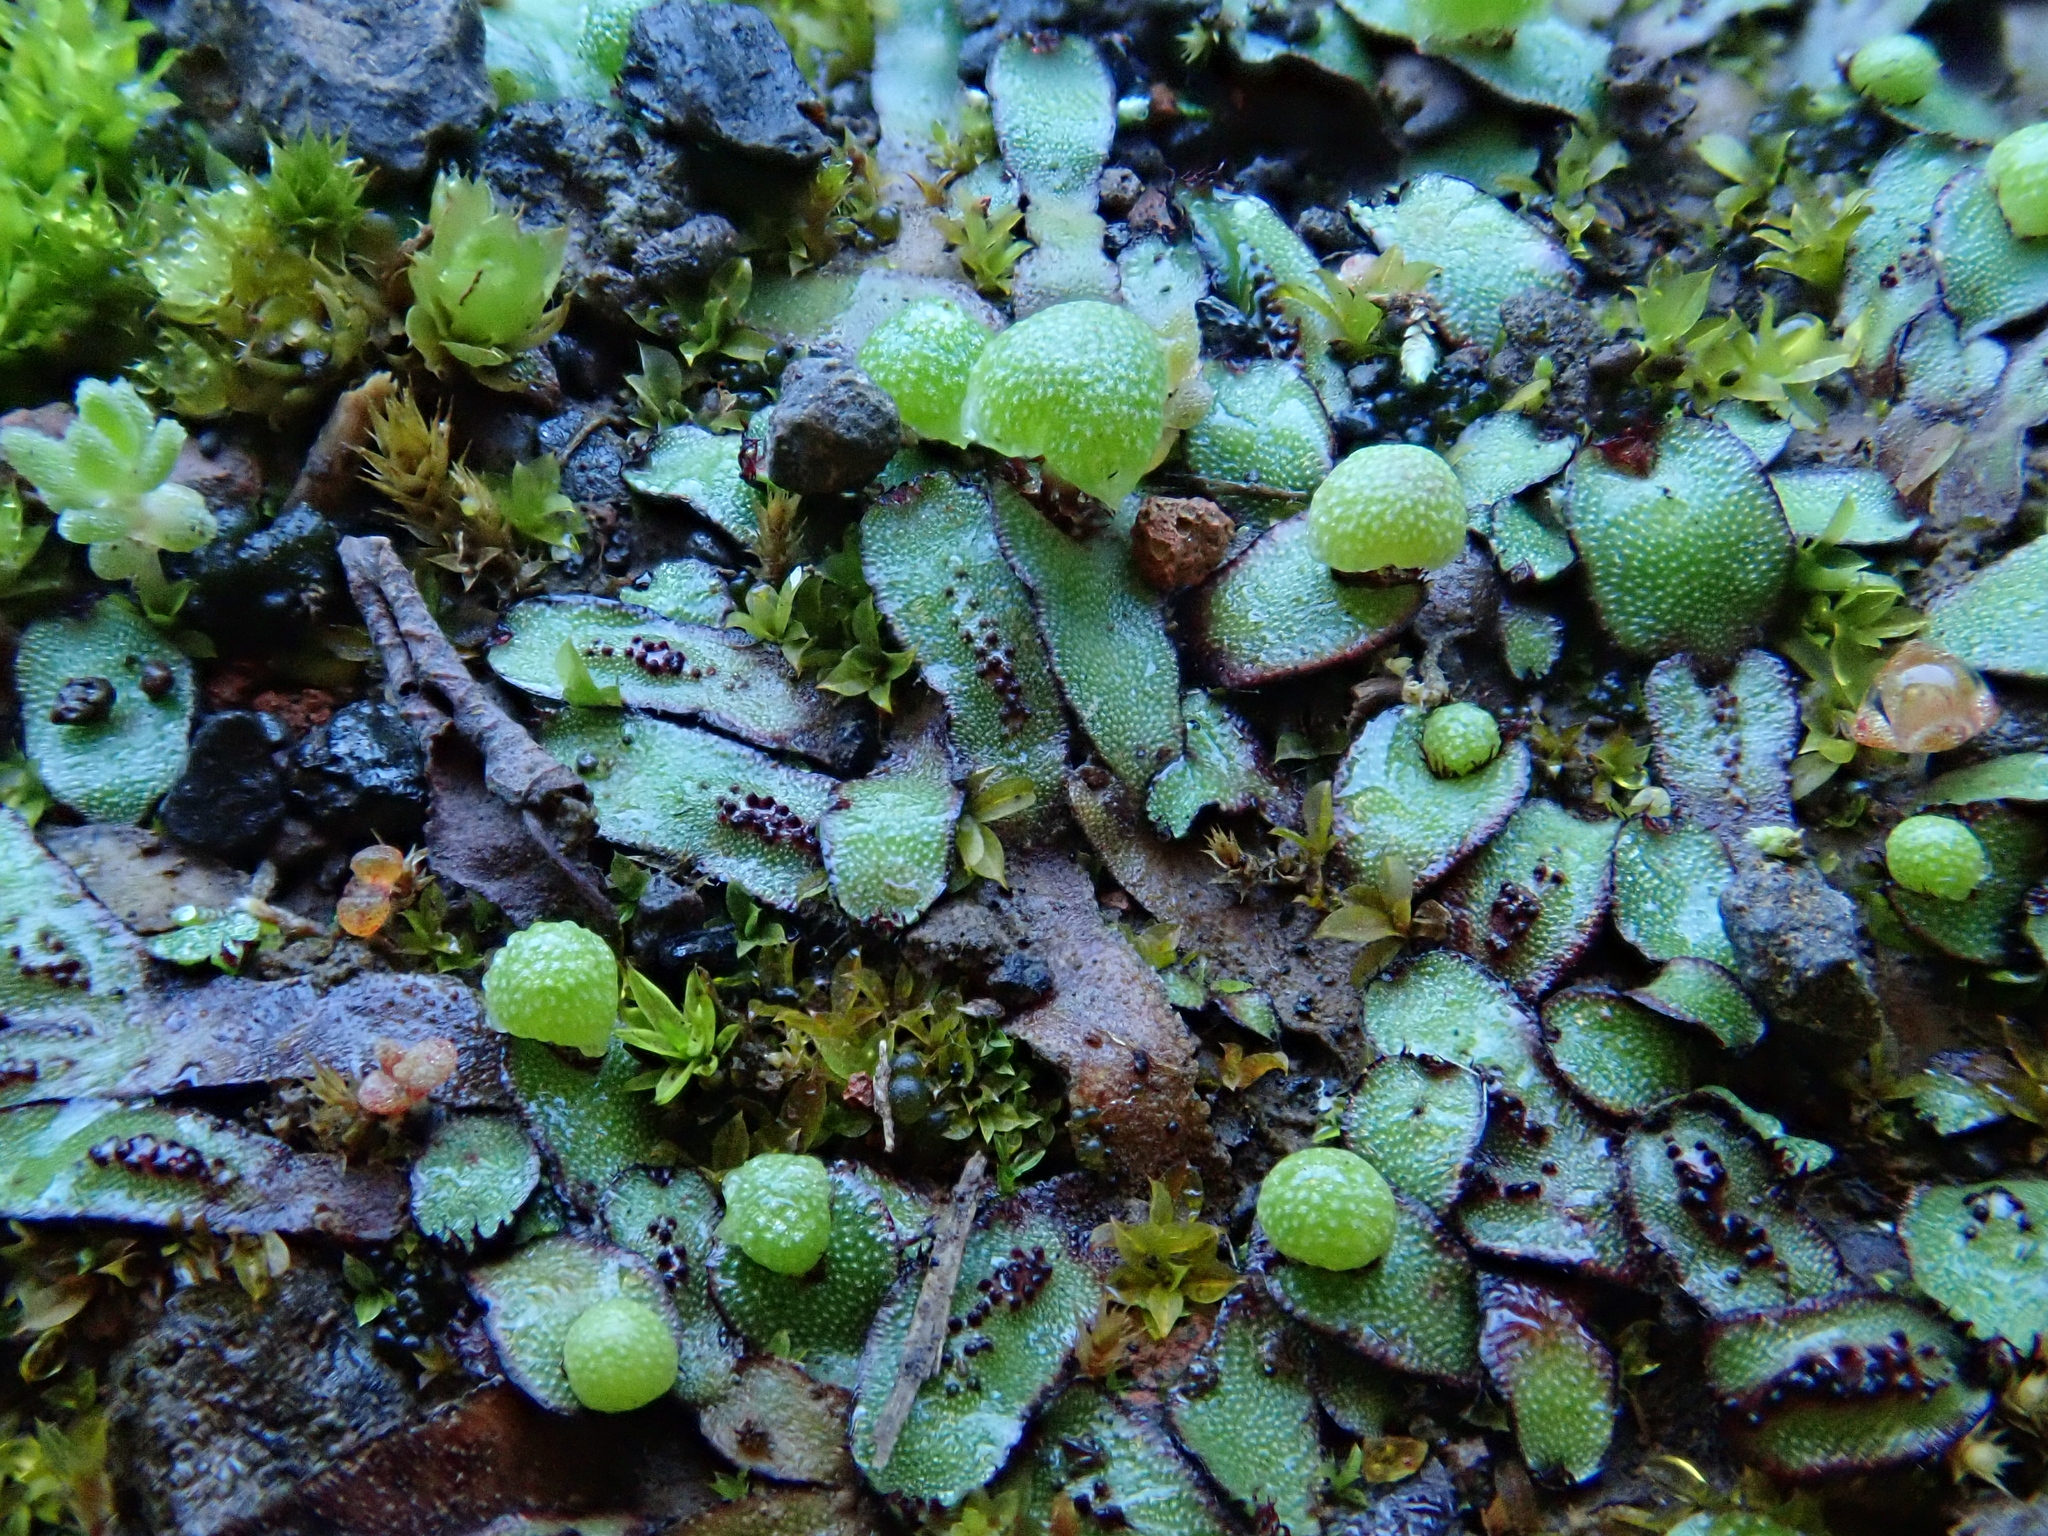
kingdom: Plantae
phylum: Marchantiophyta
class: Marchantiopsida
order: Marchantiales
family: Aytoniaceae
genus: Mannia
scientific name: Mannia androgyna
